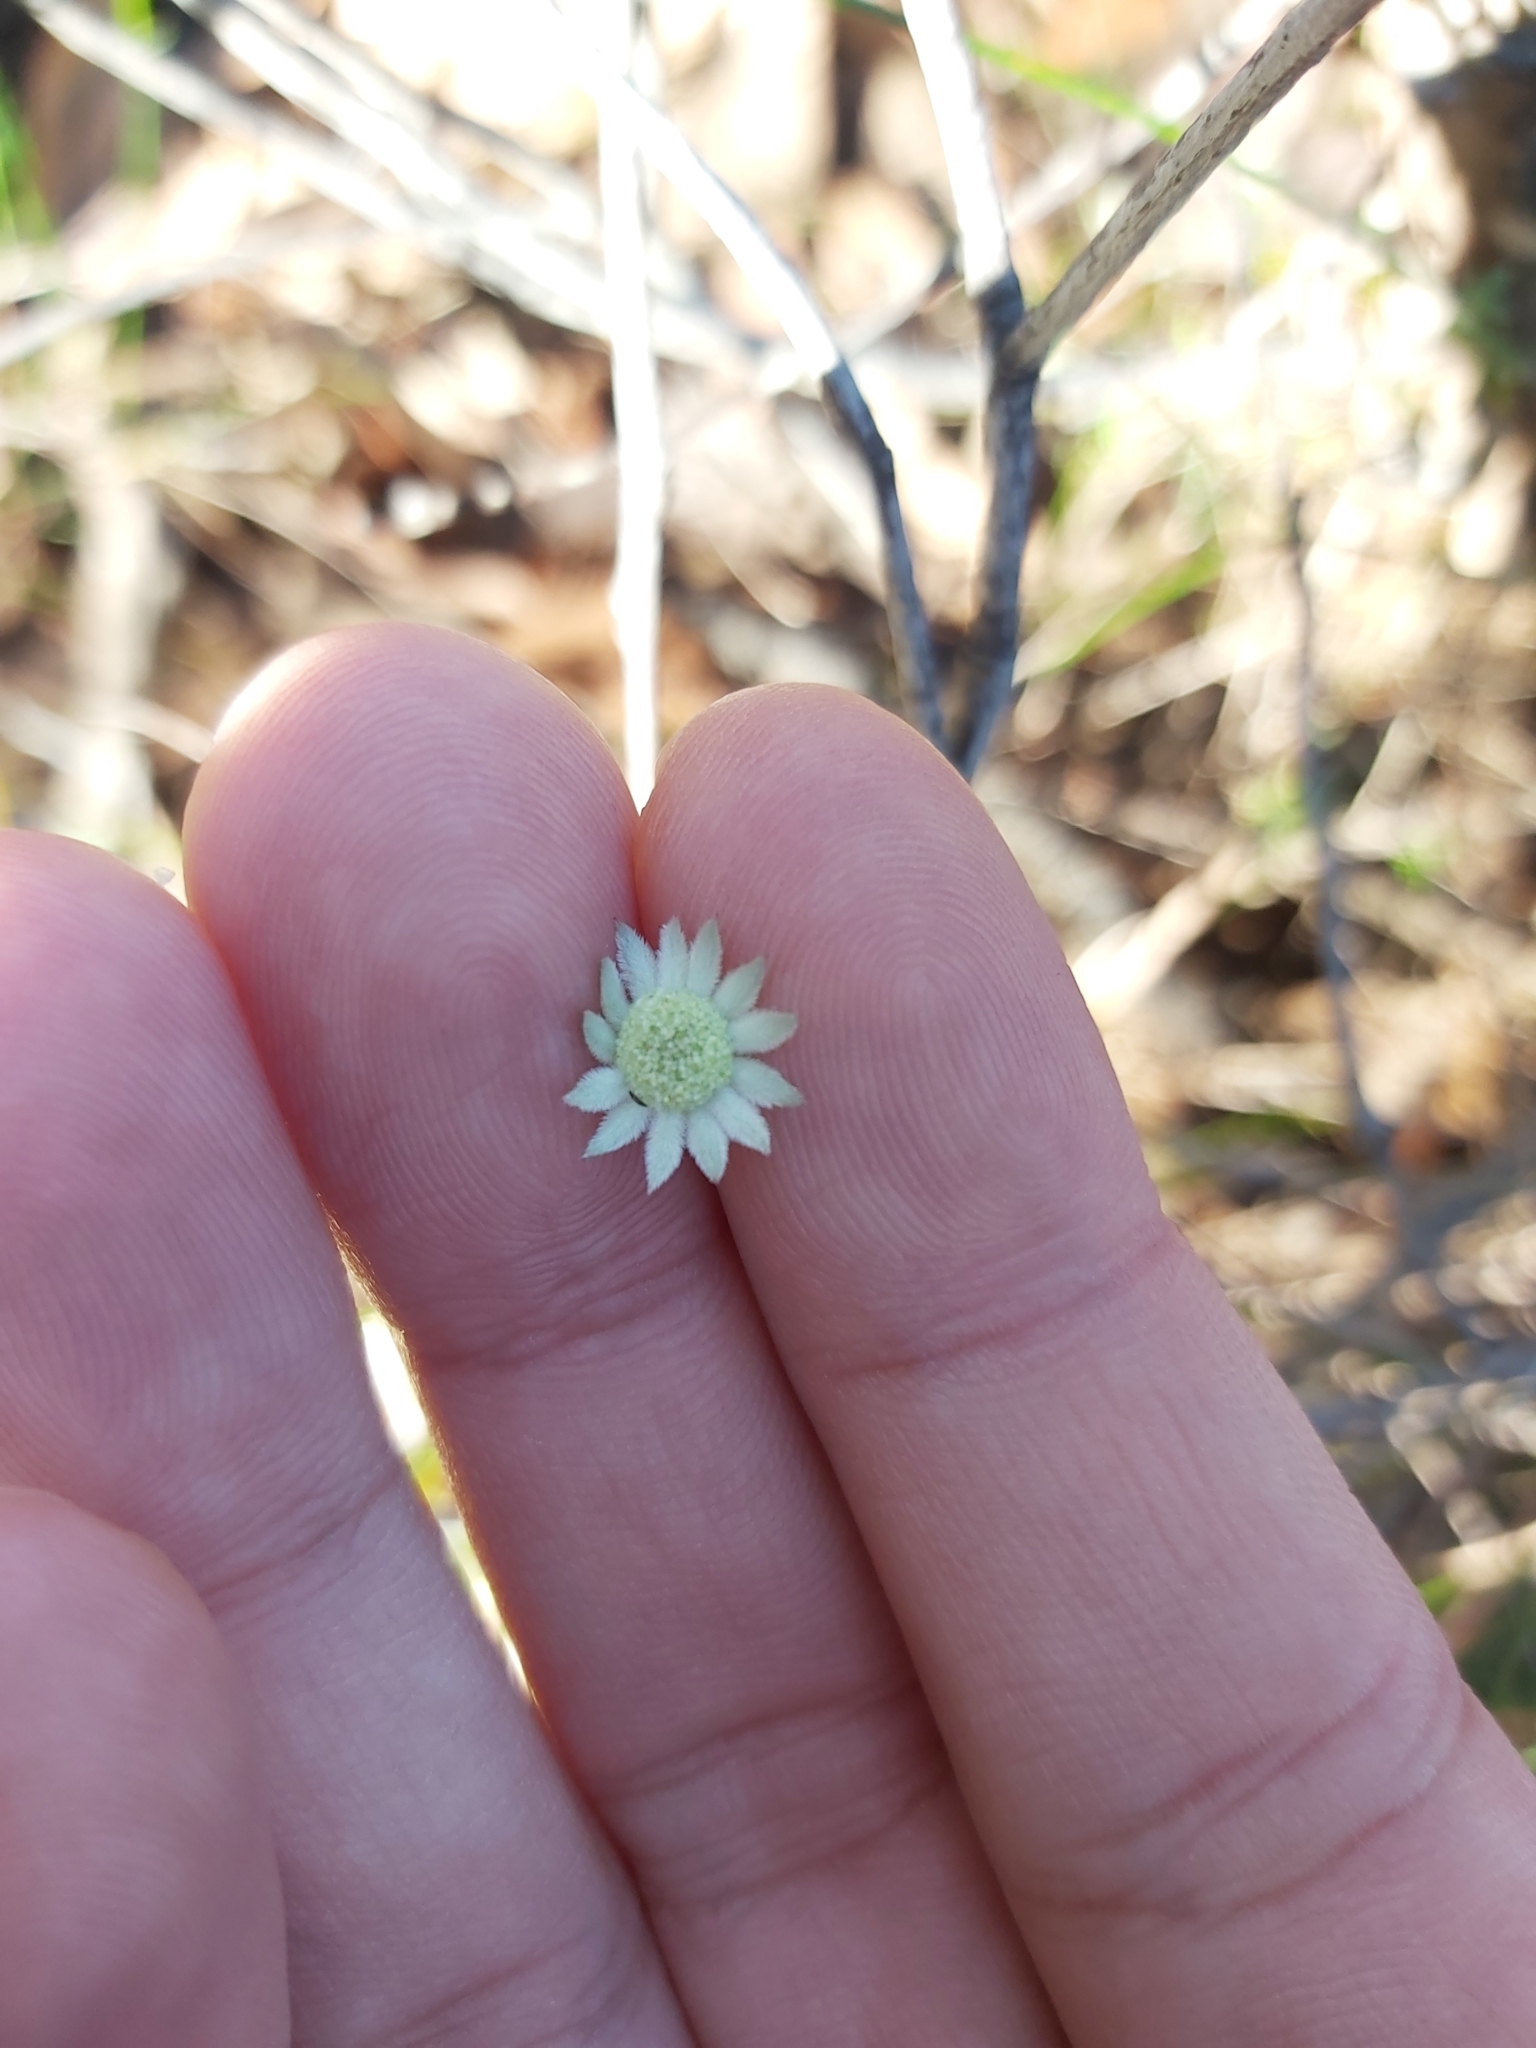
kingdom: Plantae
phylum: Tracheophyta
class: Magnoliopsida
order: Apiales
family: Apiaceae
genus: Actinotus
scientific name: Actinotus minor
